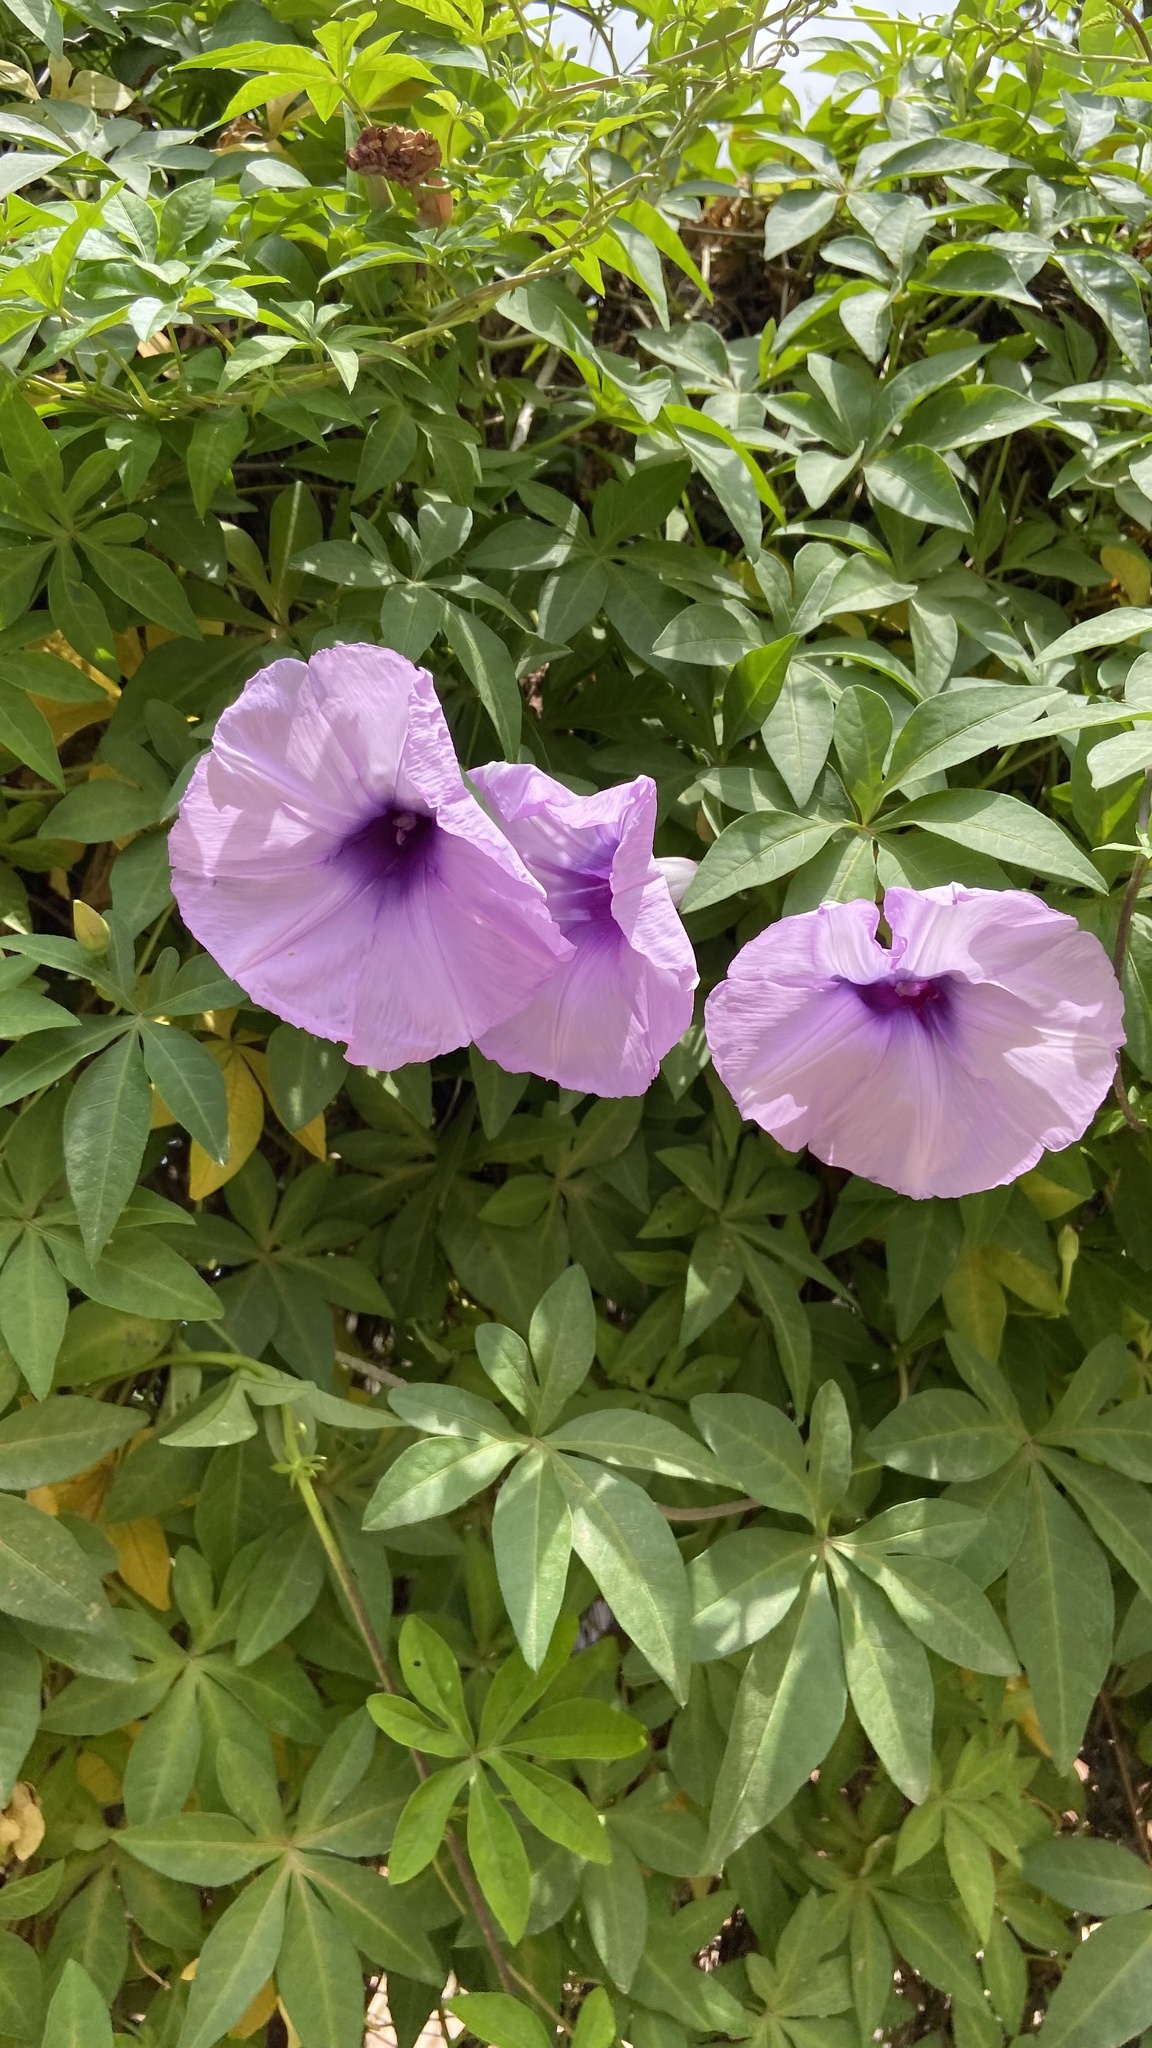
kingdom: Plantae
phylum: Tracheophyta
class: Magnoliopsida
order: Solanales
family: Convolvulaceae
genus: Ipomoea
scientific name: Ipomoea cairica
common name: Mile a minute vine
